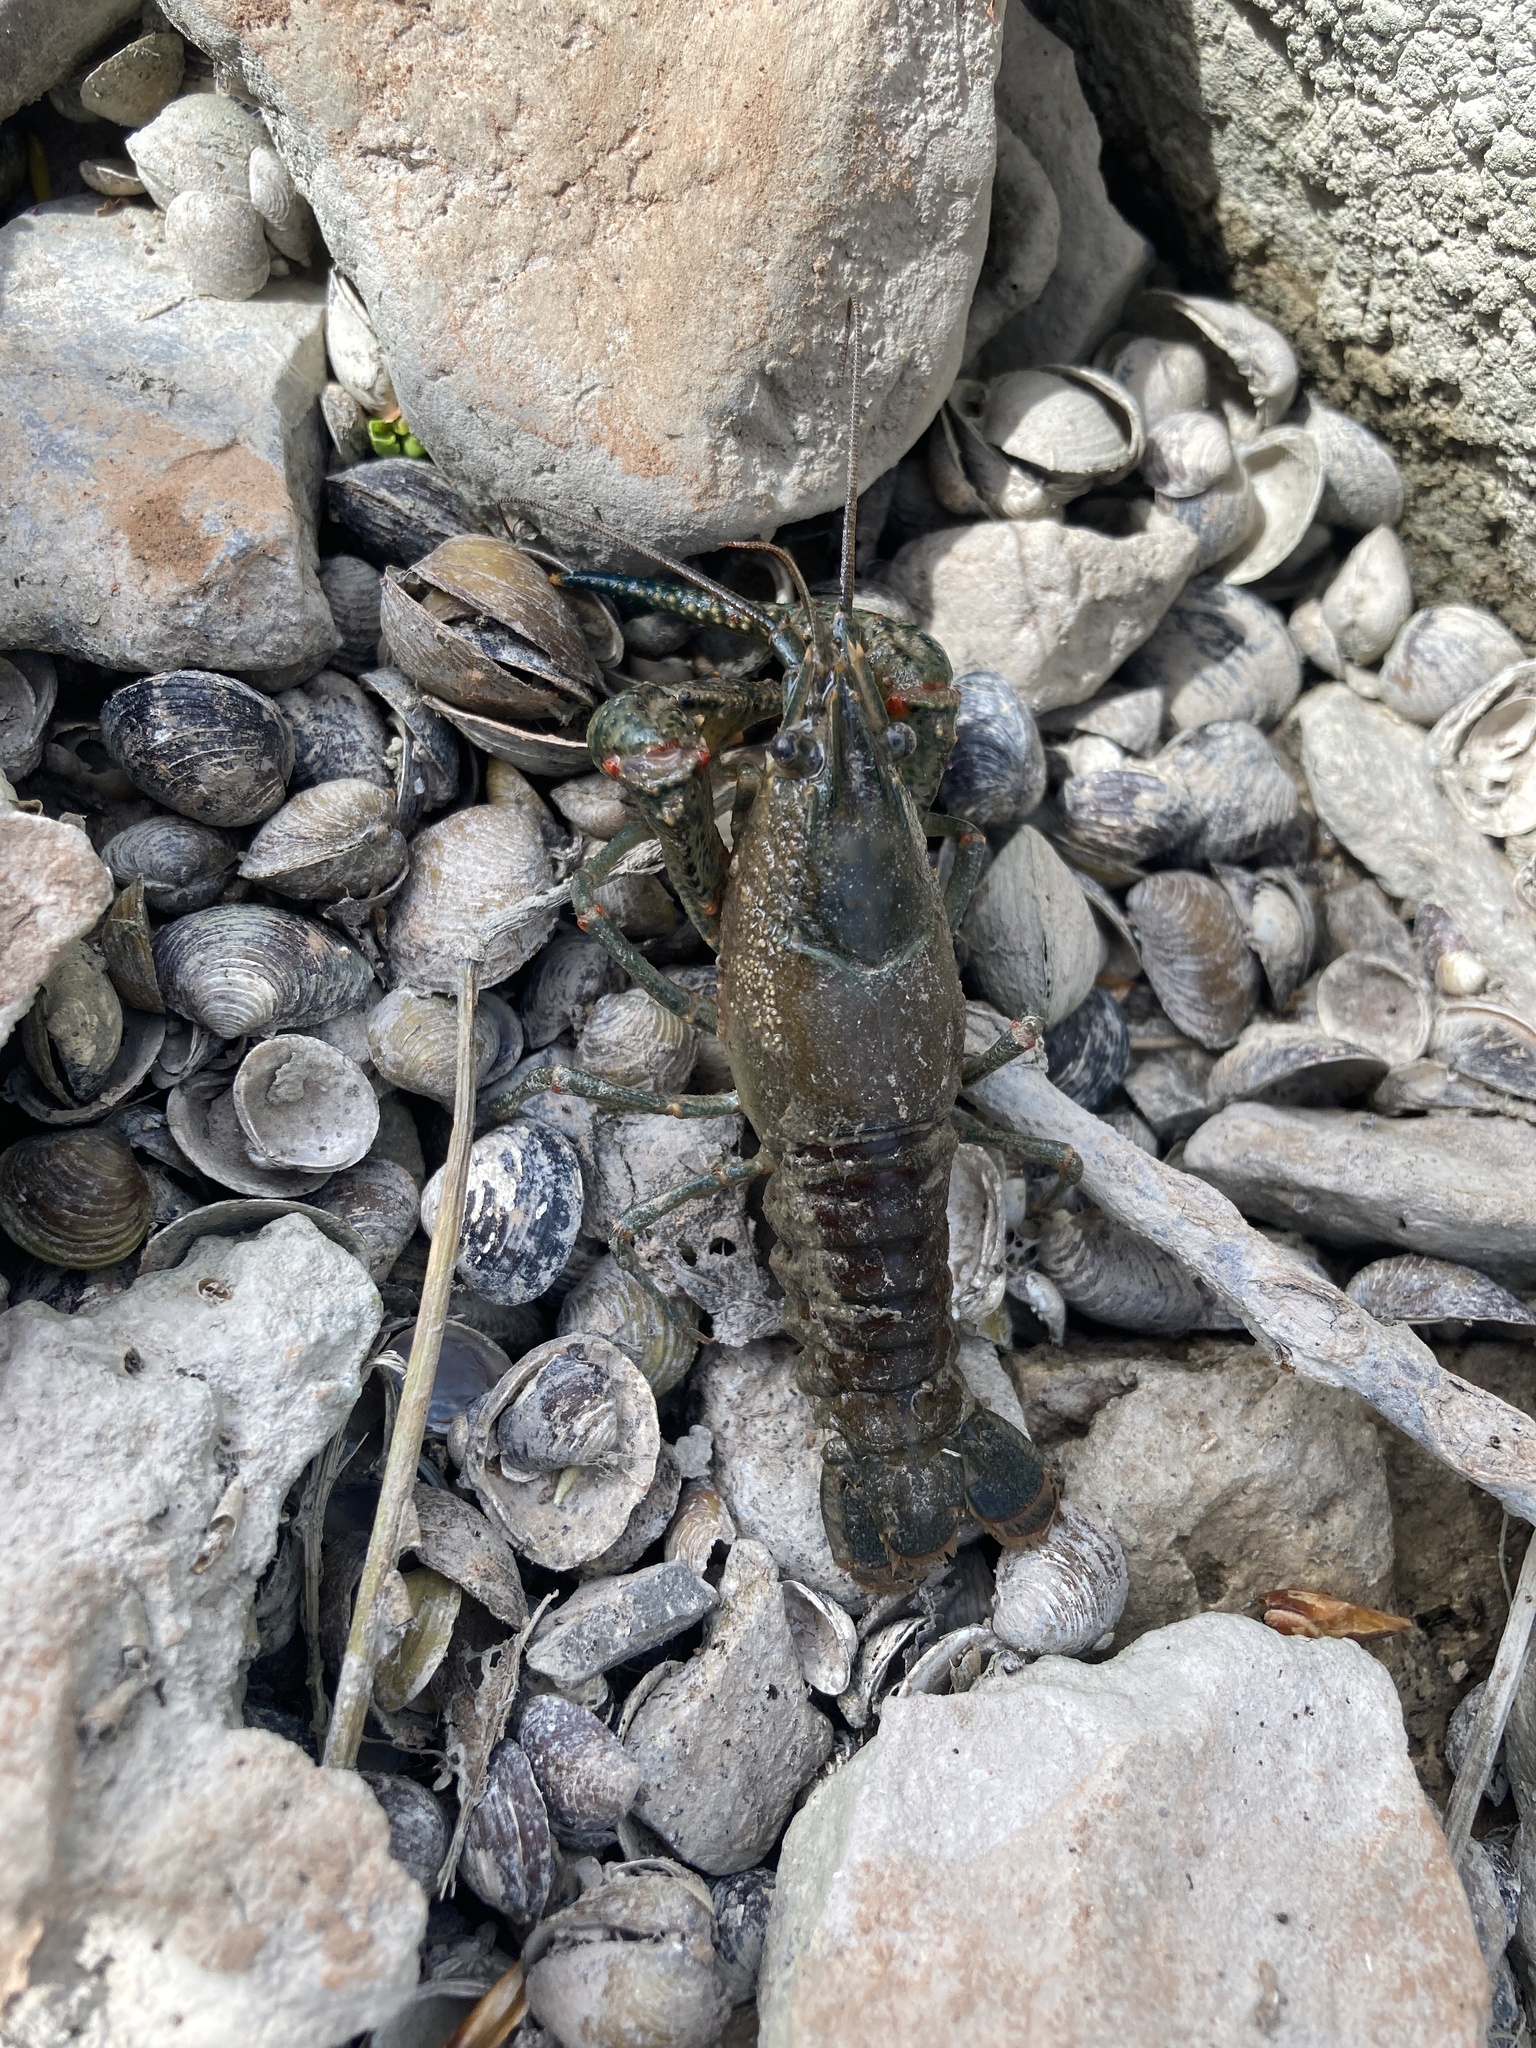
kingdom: Animalia
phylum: Arthropoda
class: Malacostraca
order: Decapoda
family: Cambaridae
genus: Faxonius
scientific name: Faxonius deanae
